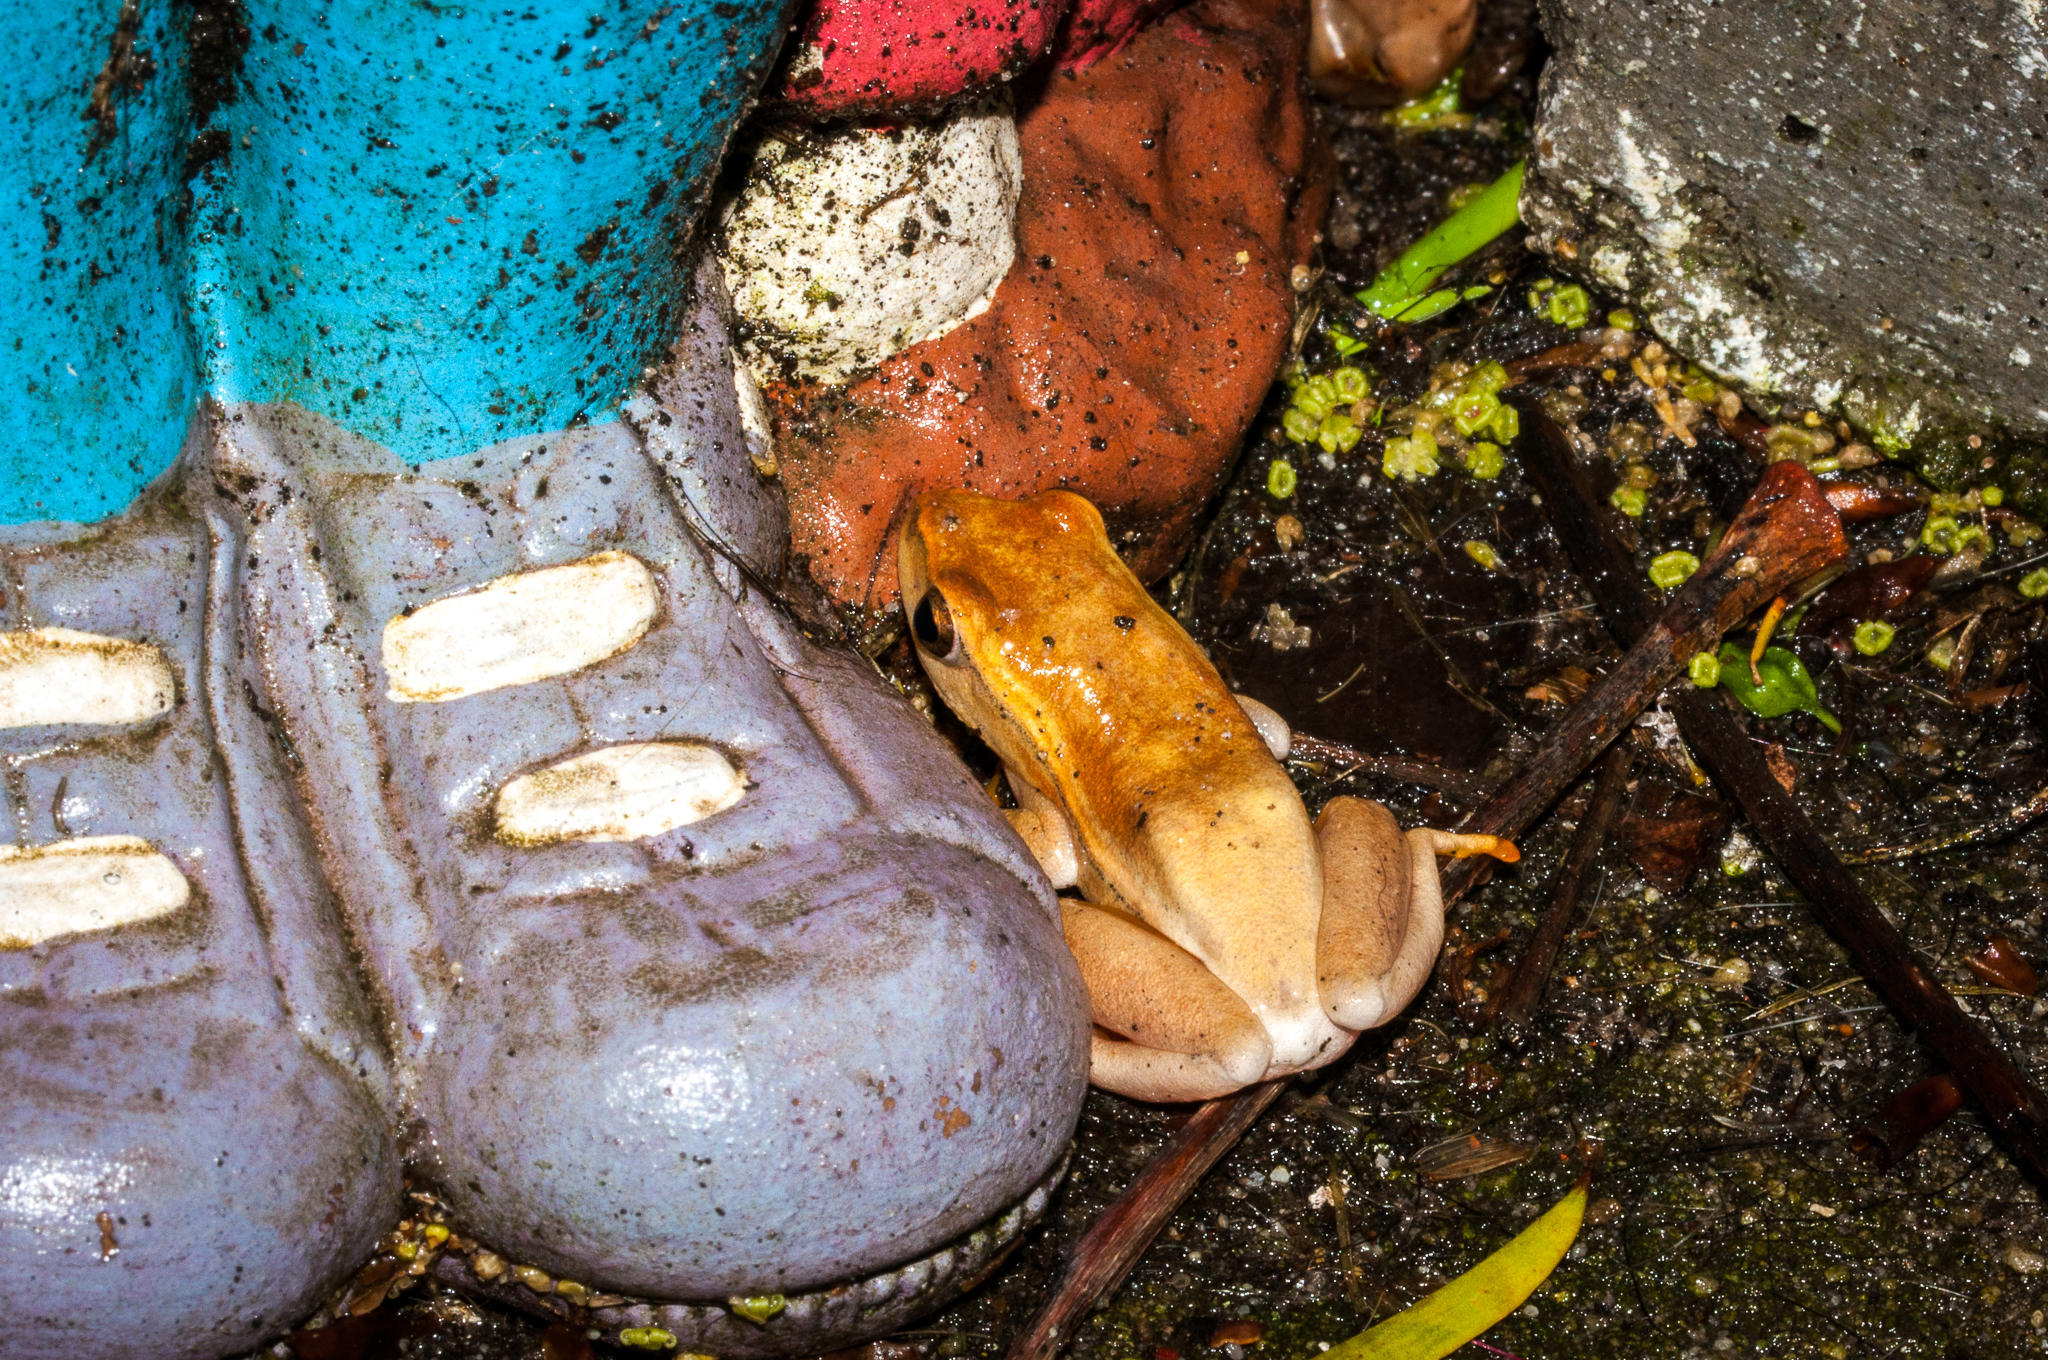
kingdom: Animalia
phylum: Chordata
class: Amphibia
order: Anura
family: Hyperoliidae
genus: Hyperolius
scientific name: Hyperolius horstockii
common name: Arum lily frog
